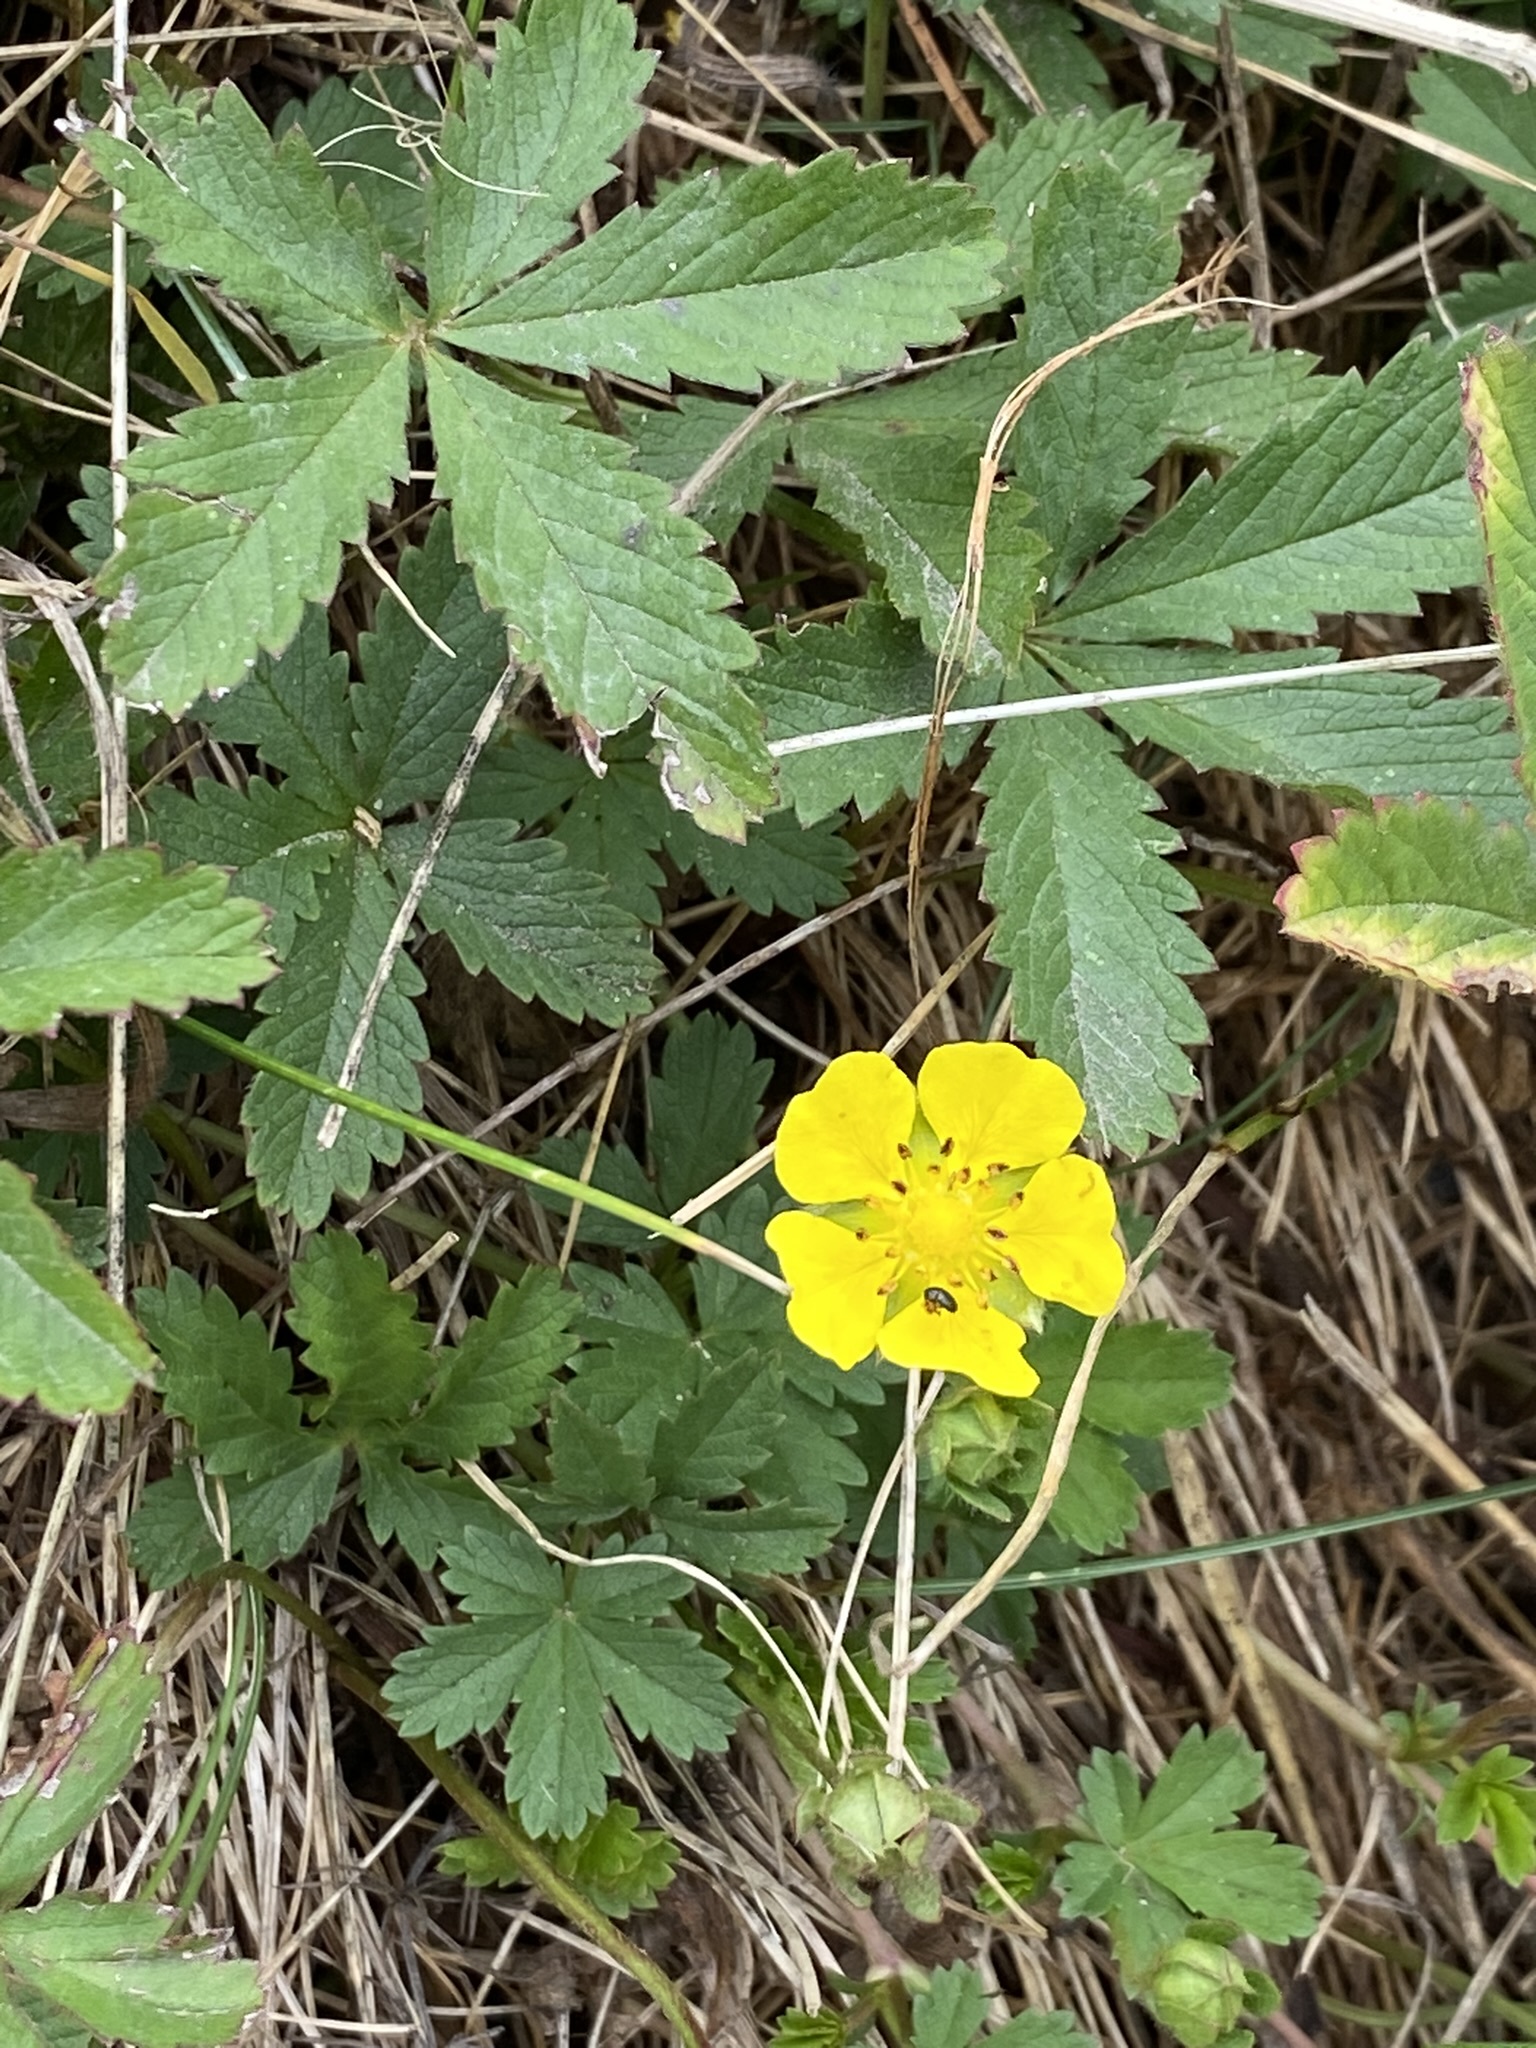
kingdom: Plantae
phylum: Tracheophyta
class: Magnoliopsida
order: Rosales
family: Rosaceae
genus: Potentilla
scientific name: Potentilla reptans
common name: Creeping cinquefoil
